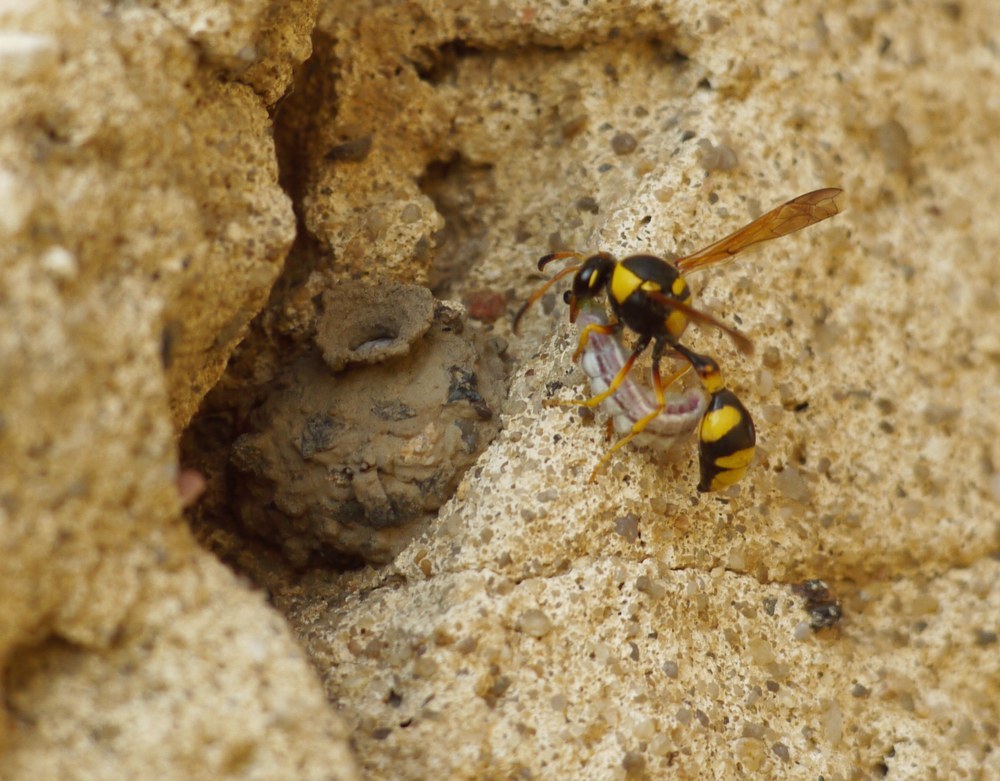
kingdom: Animalia
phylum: Arthropoda
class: Insecta
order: Hymenoptera
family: Eumenidae
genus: Katamenes
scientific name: Katamenes dimidiatus
